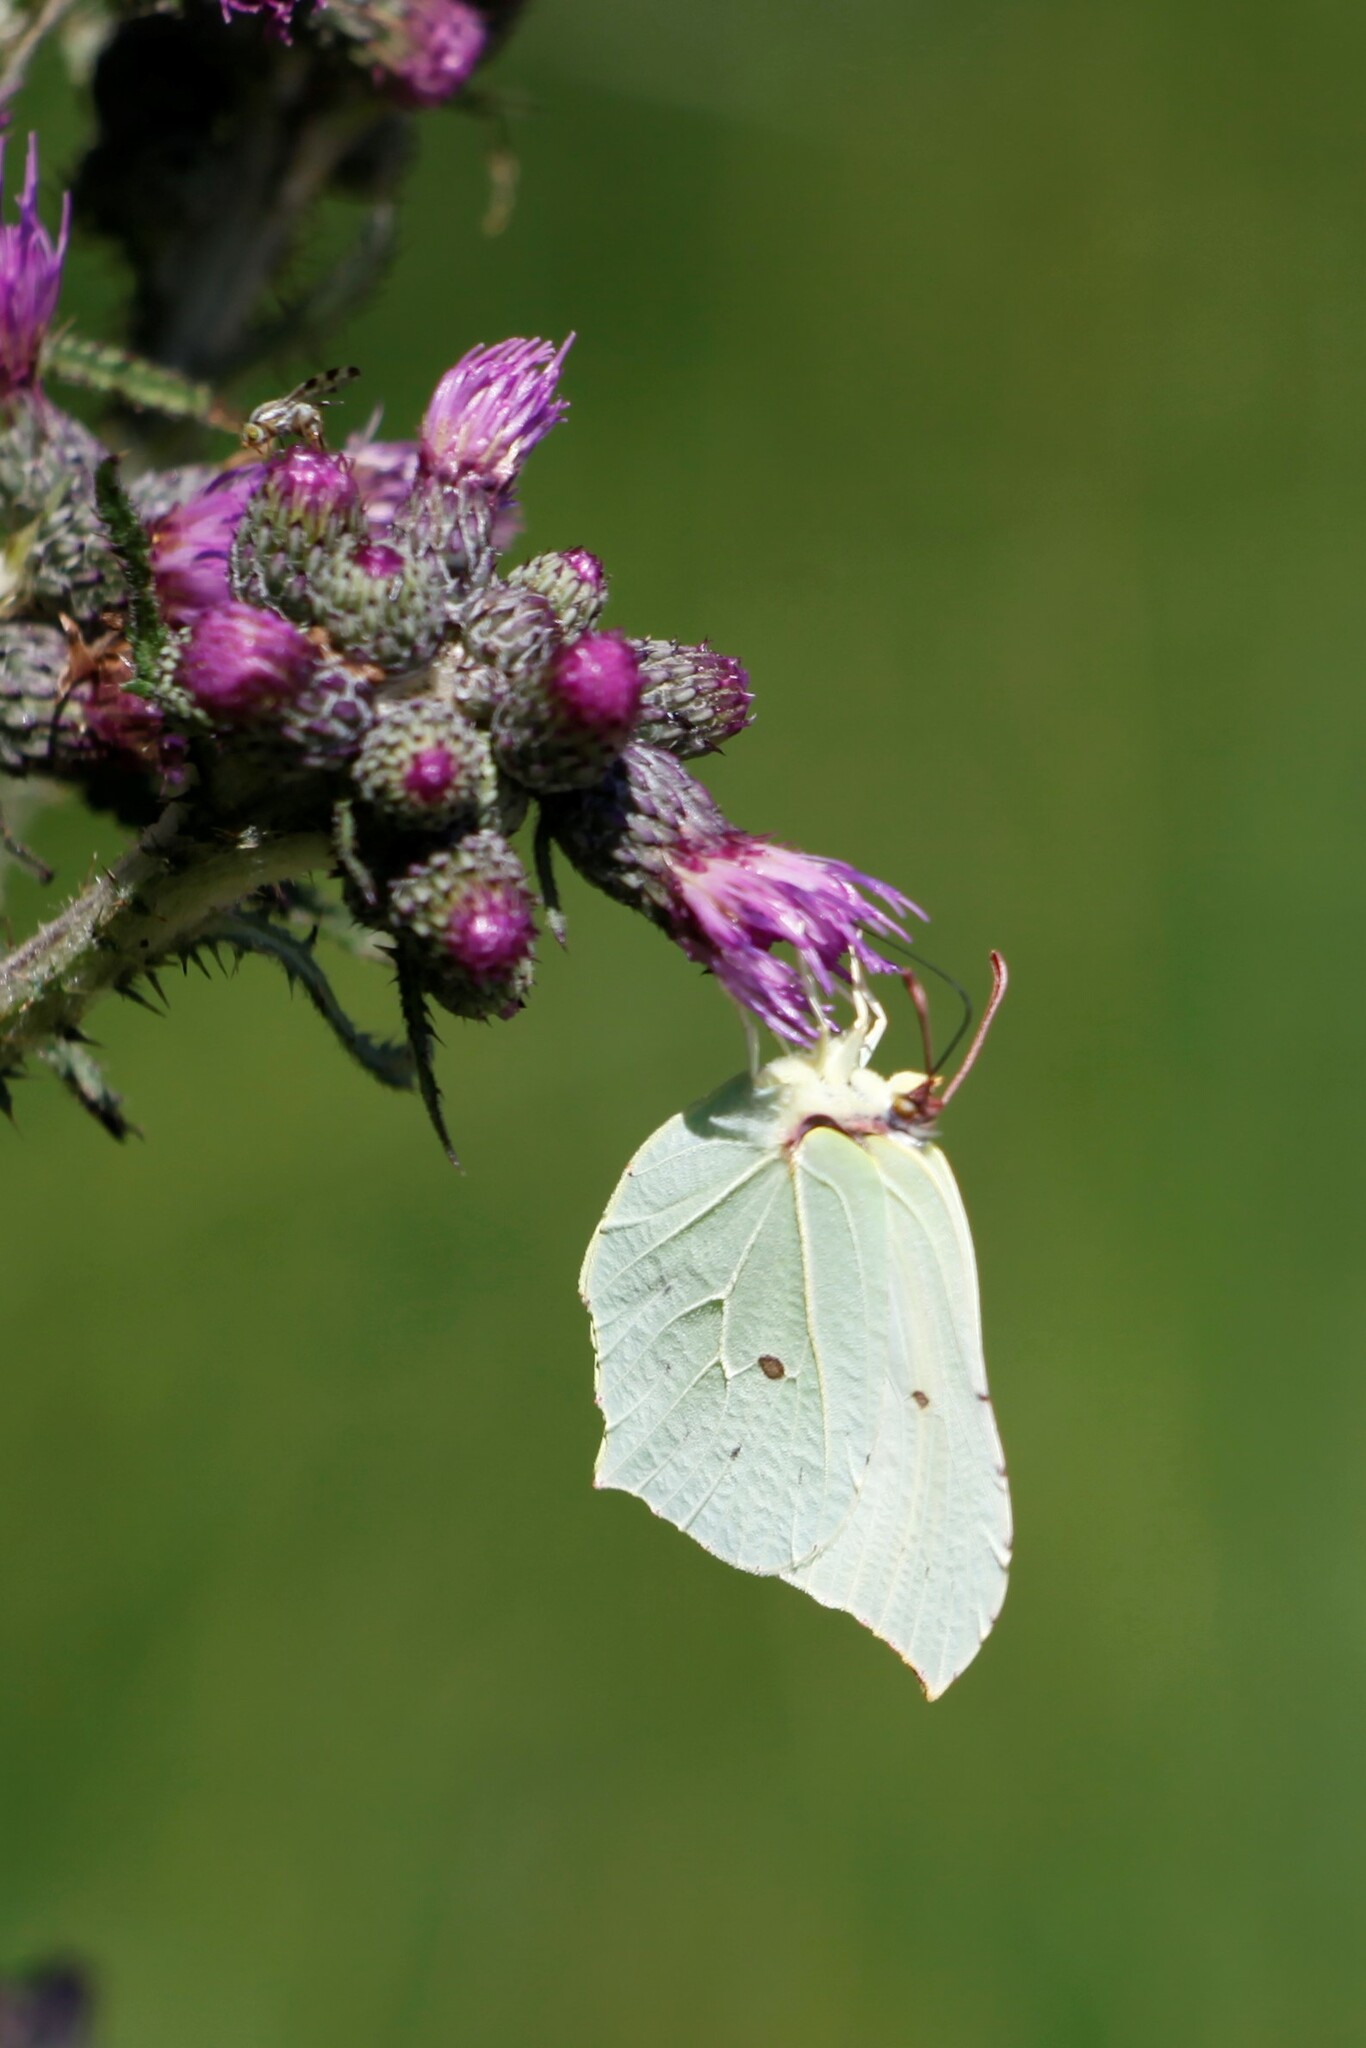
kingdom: Animalia
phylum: Arthropoda
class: Insecta
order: Lepidoptera
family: Pieridae
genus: Gonepteryx
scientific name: Gonepteryx rhamni
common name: Brimstone
